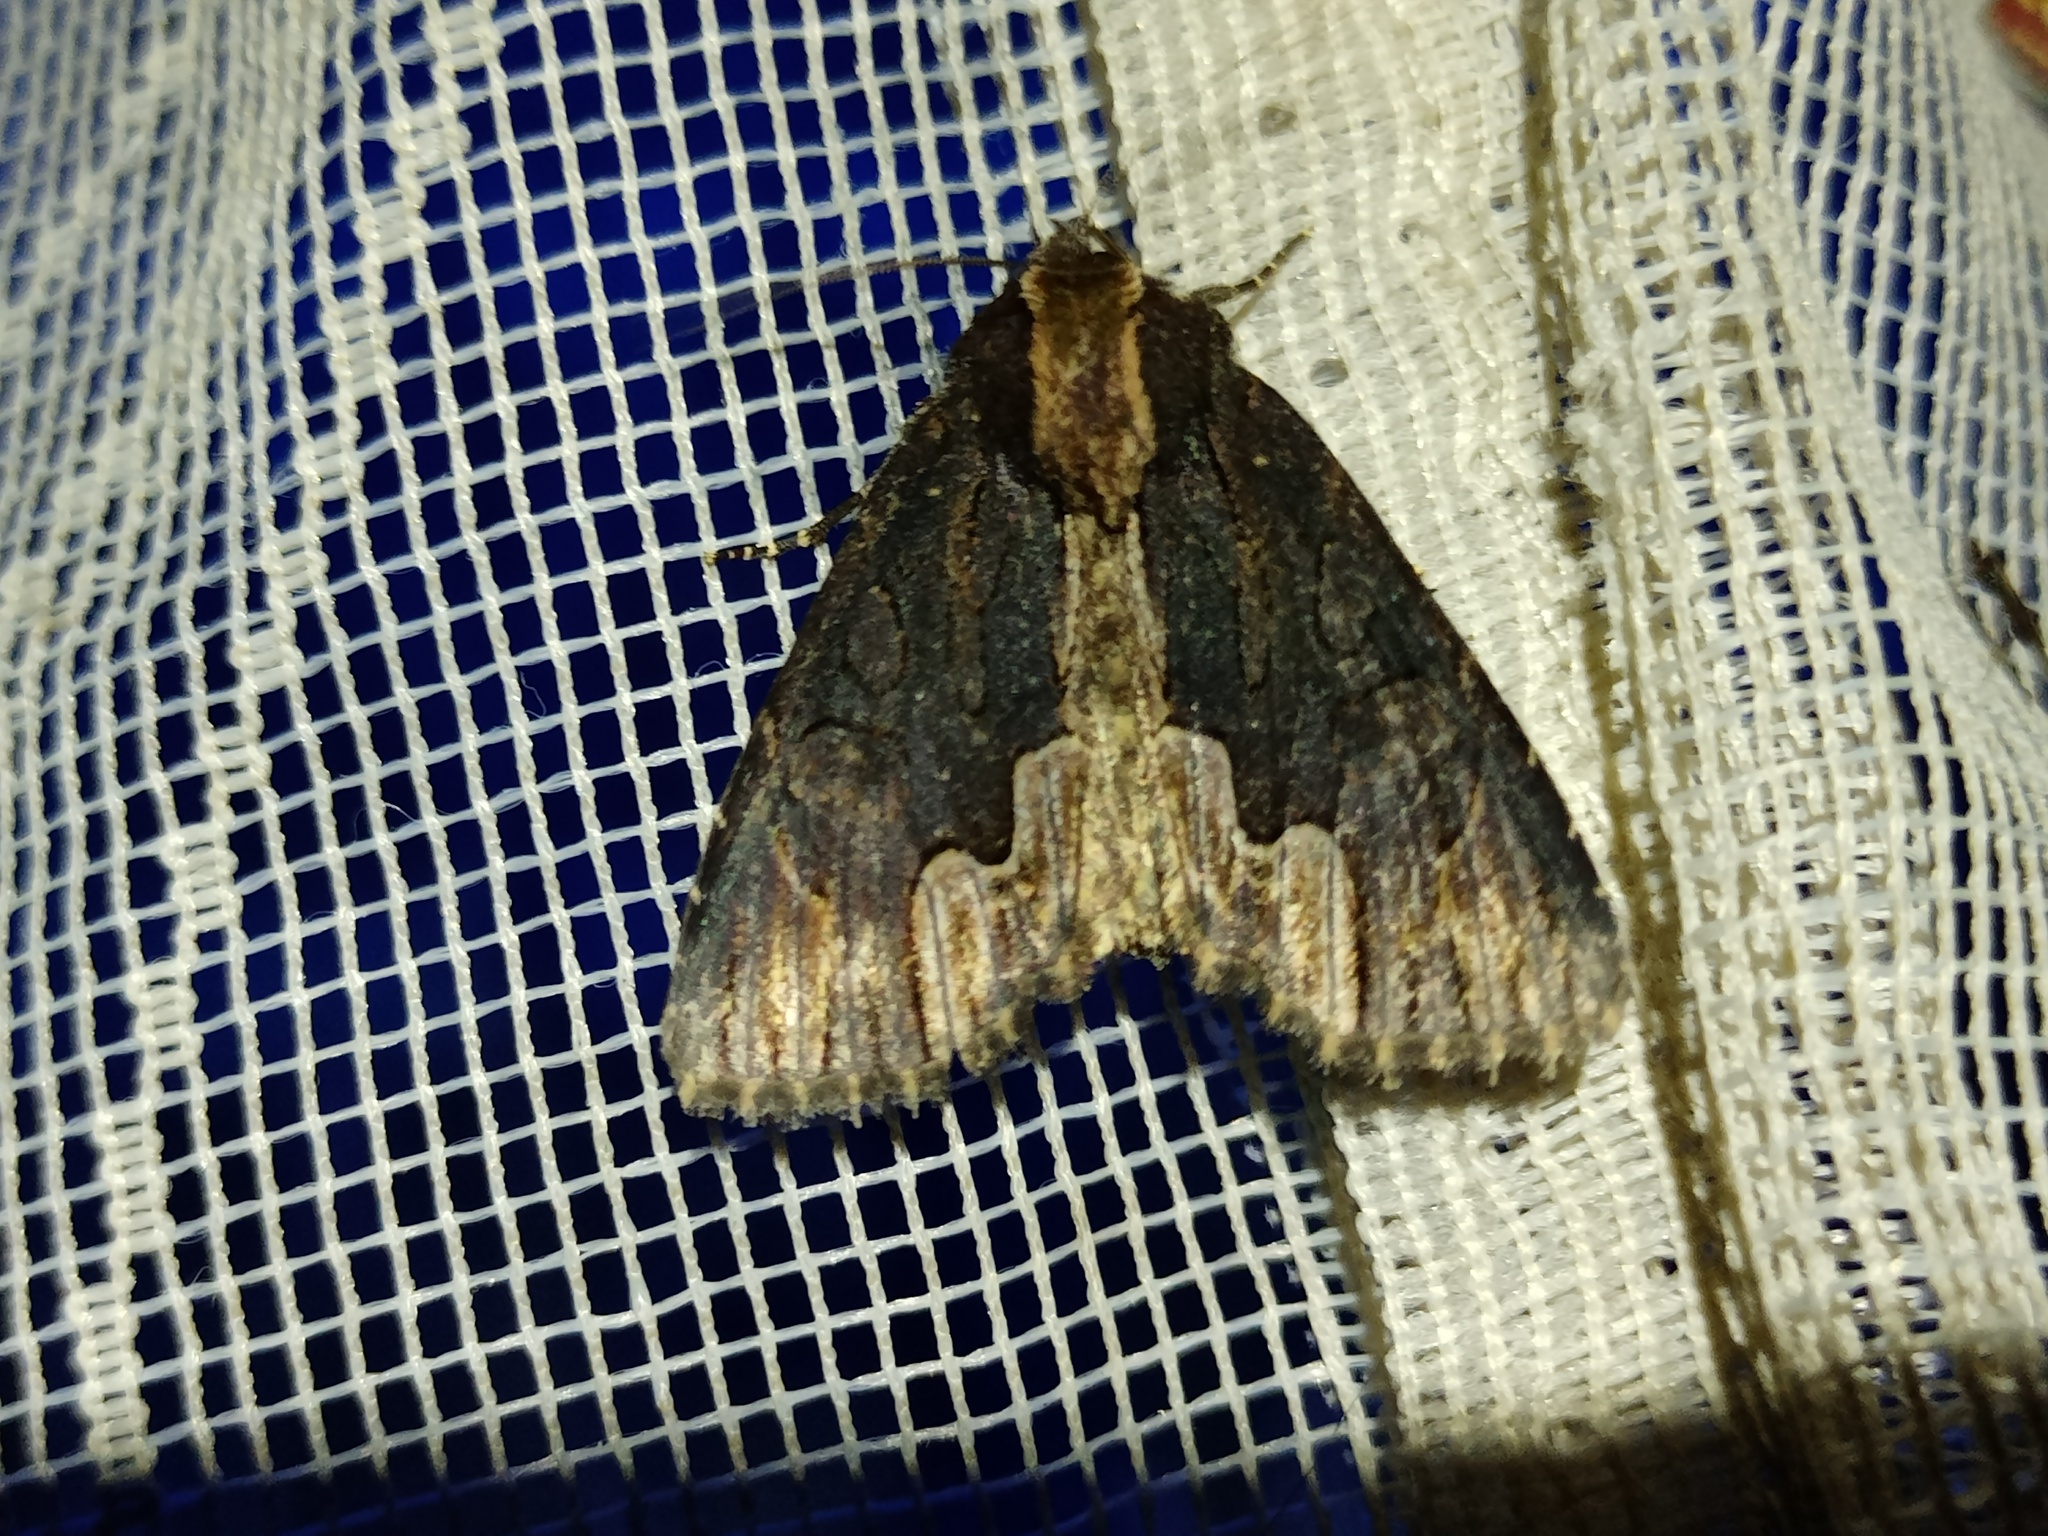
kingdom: Animalia
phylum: Arthropoda
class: Insecta
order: Lepidoptera
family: Noctuidae
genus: Dypterygia
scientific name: Dypterygia scabriuscula
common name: Bird's wing
